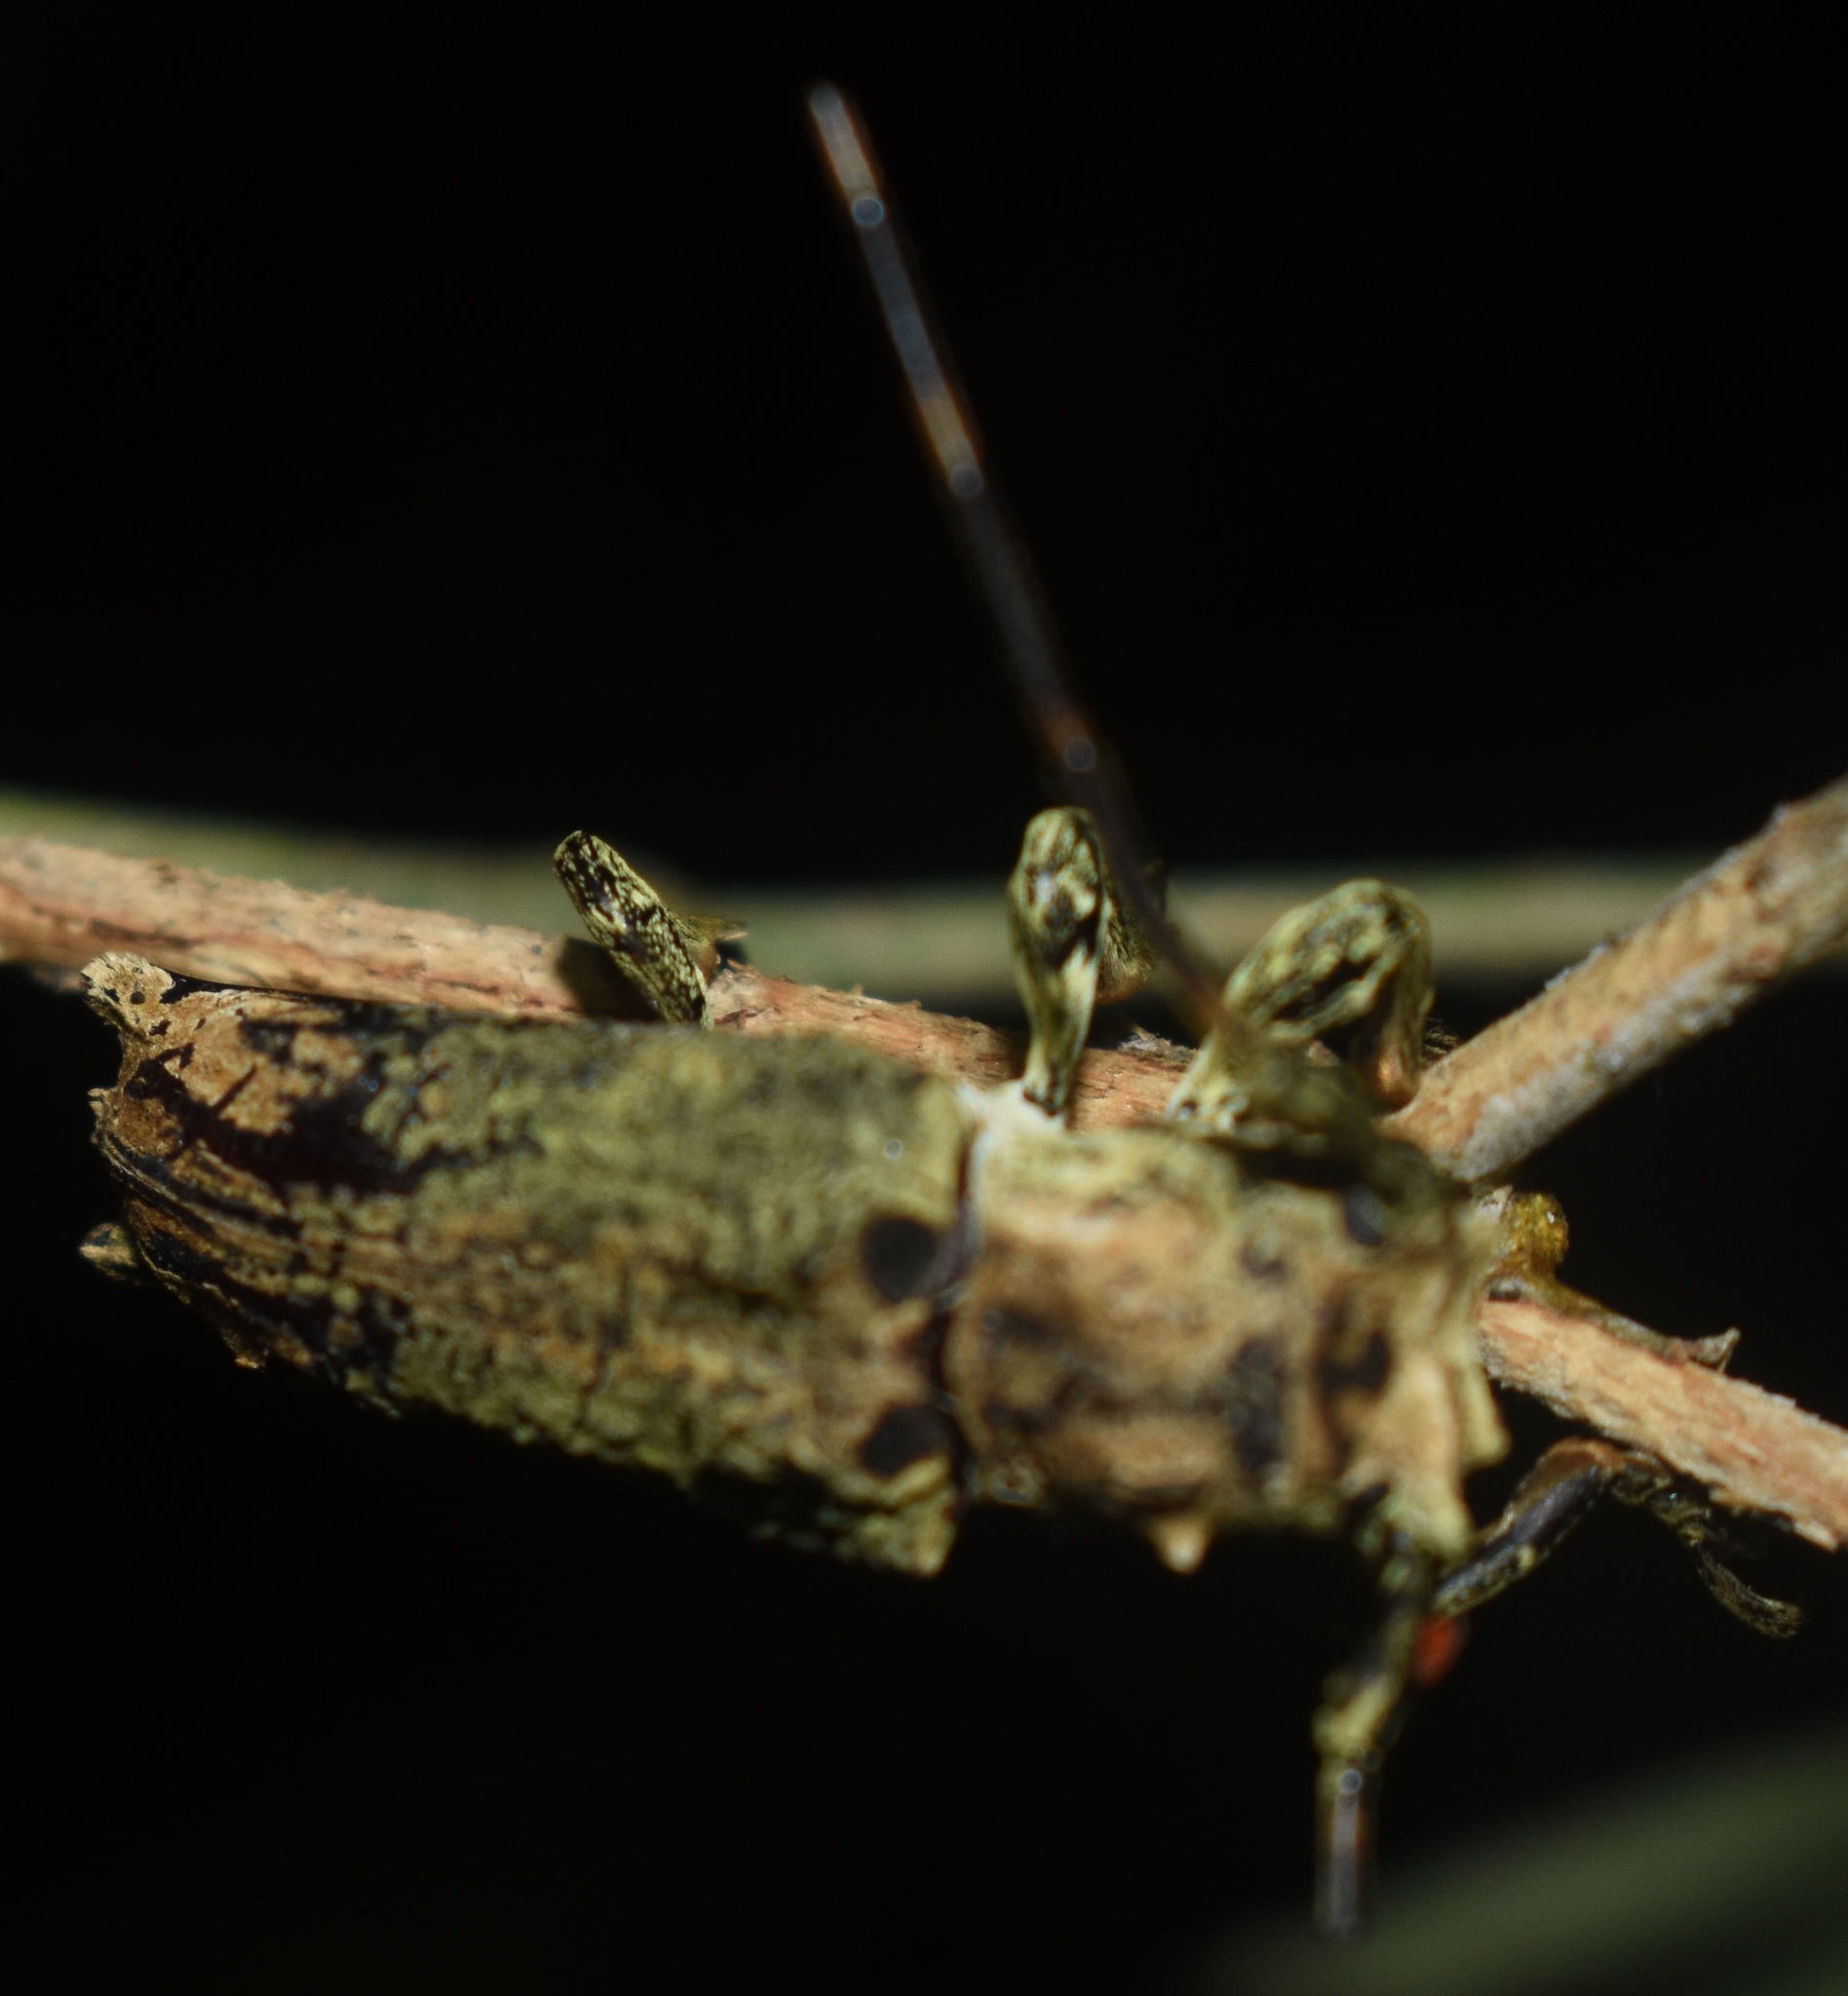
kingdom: Animalia
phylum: Arthropoda
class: Insecta
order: Coleoptera
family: Cerambycidae
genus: Ecthoea
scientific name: Ecthoea quadricornis
